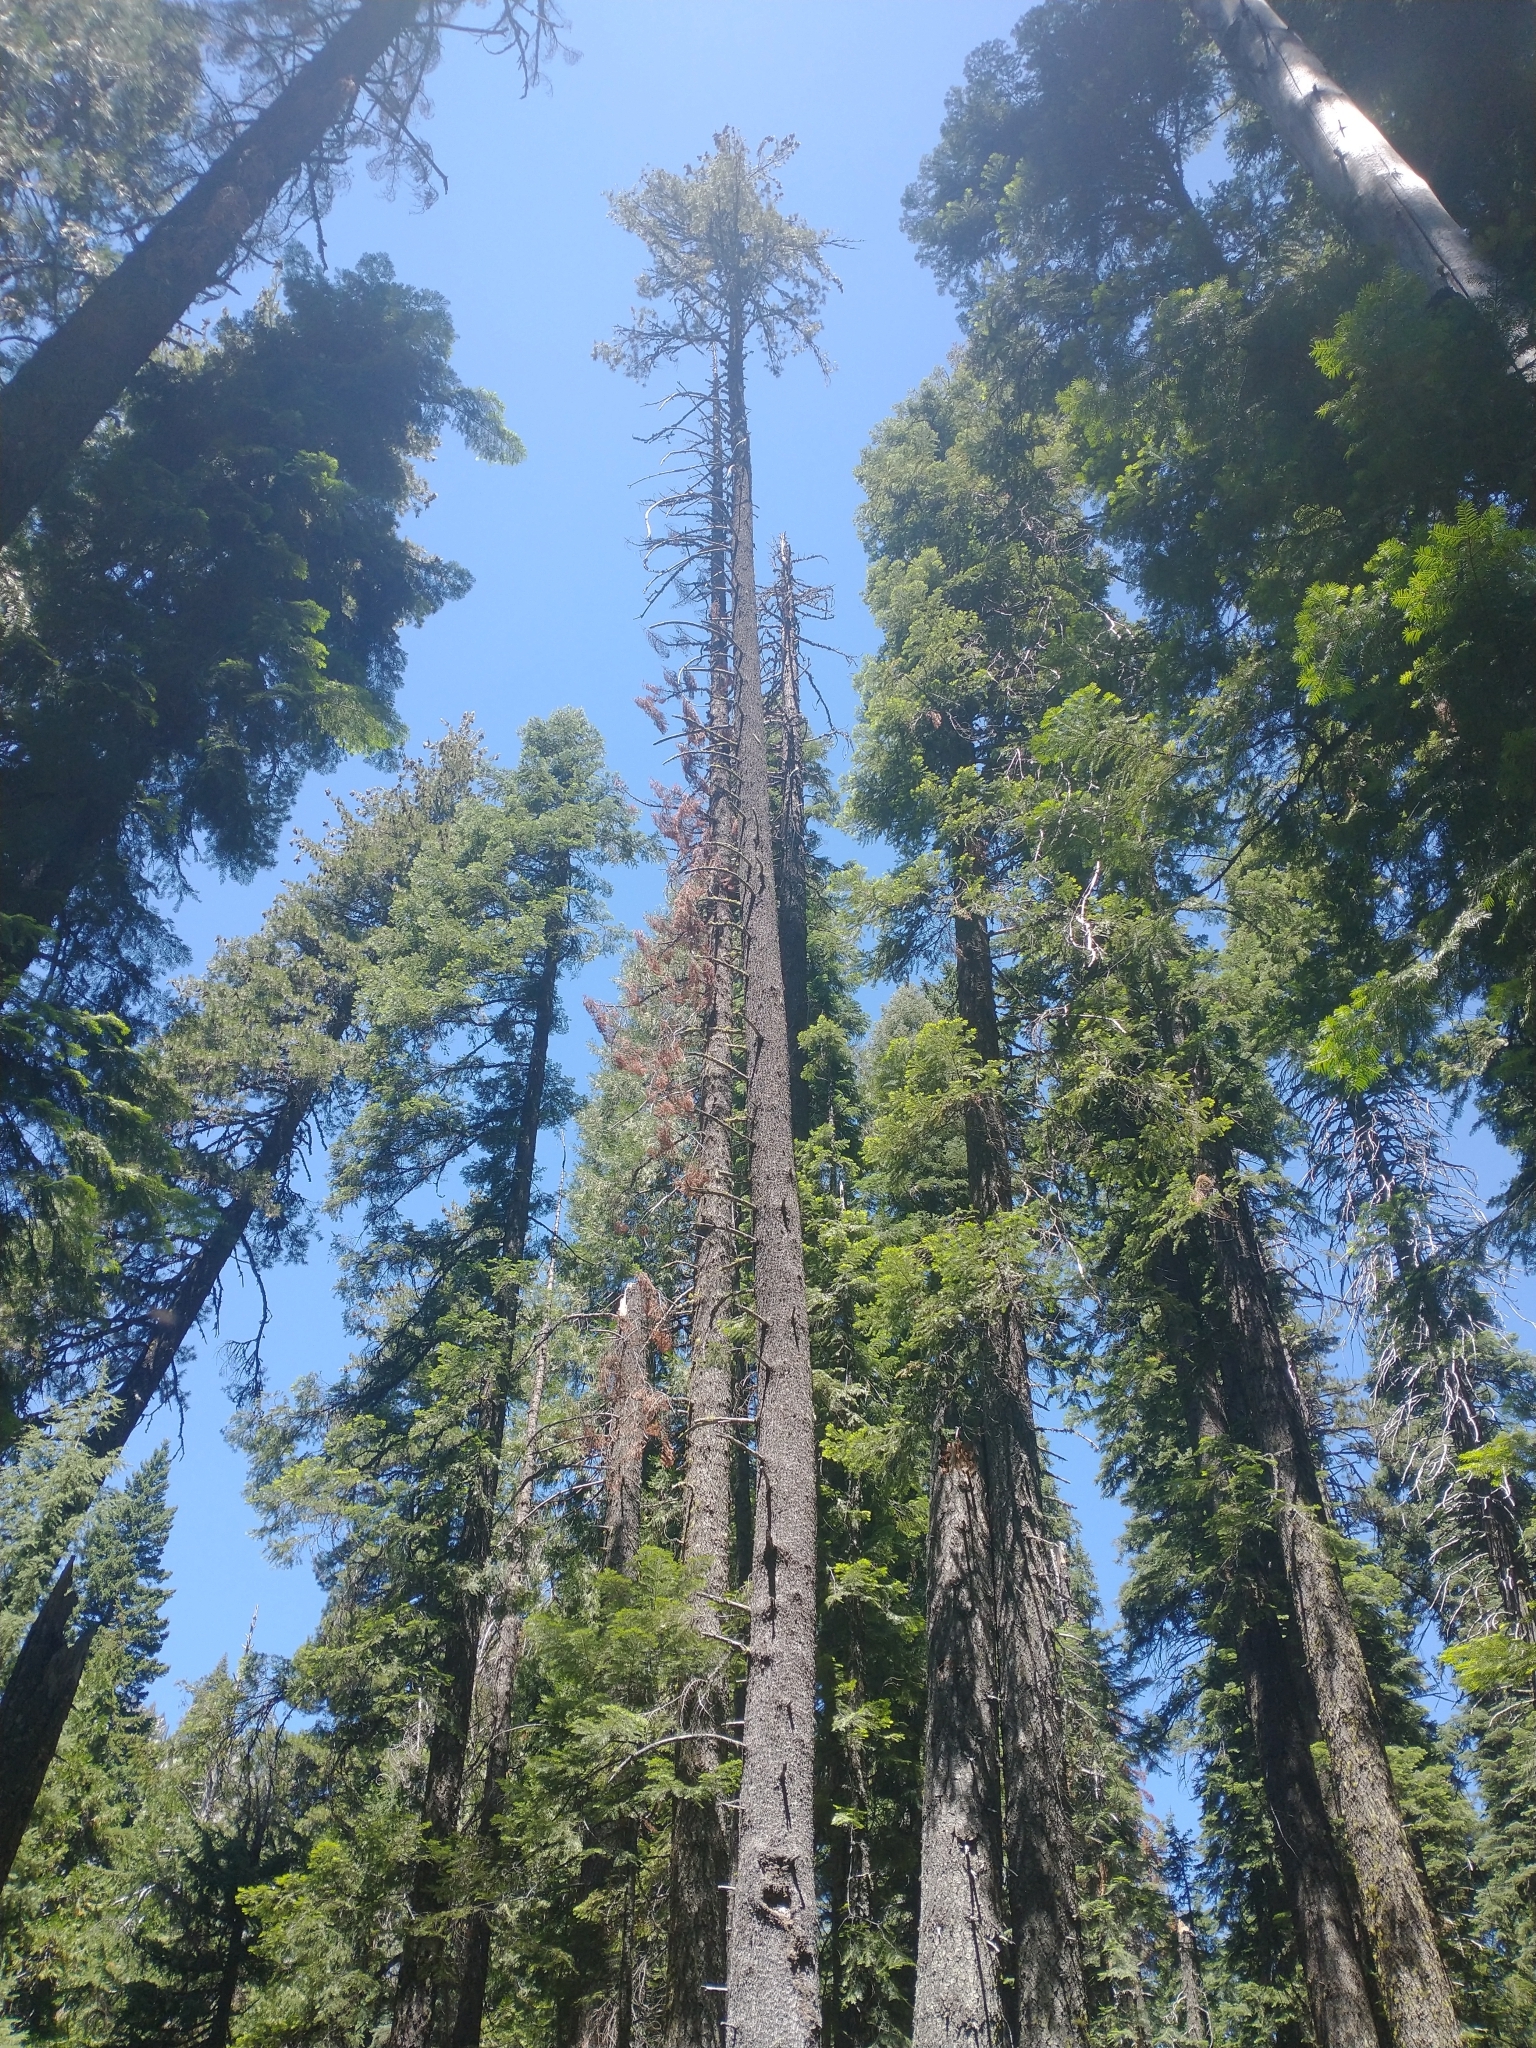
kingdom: Plantae
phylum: Tracheophyta
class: Pinopsida
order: Pinales
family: Pinaceae
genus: Pinus
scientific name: Pinus monticola
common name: Western white pine
